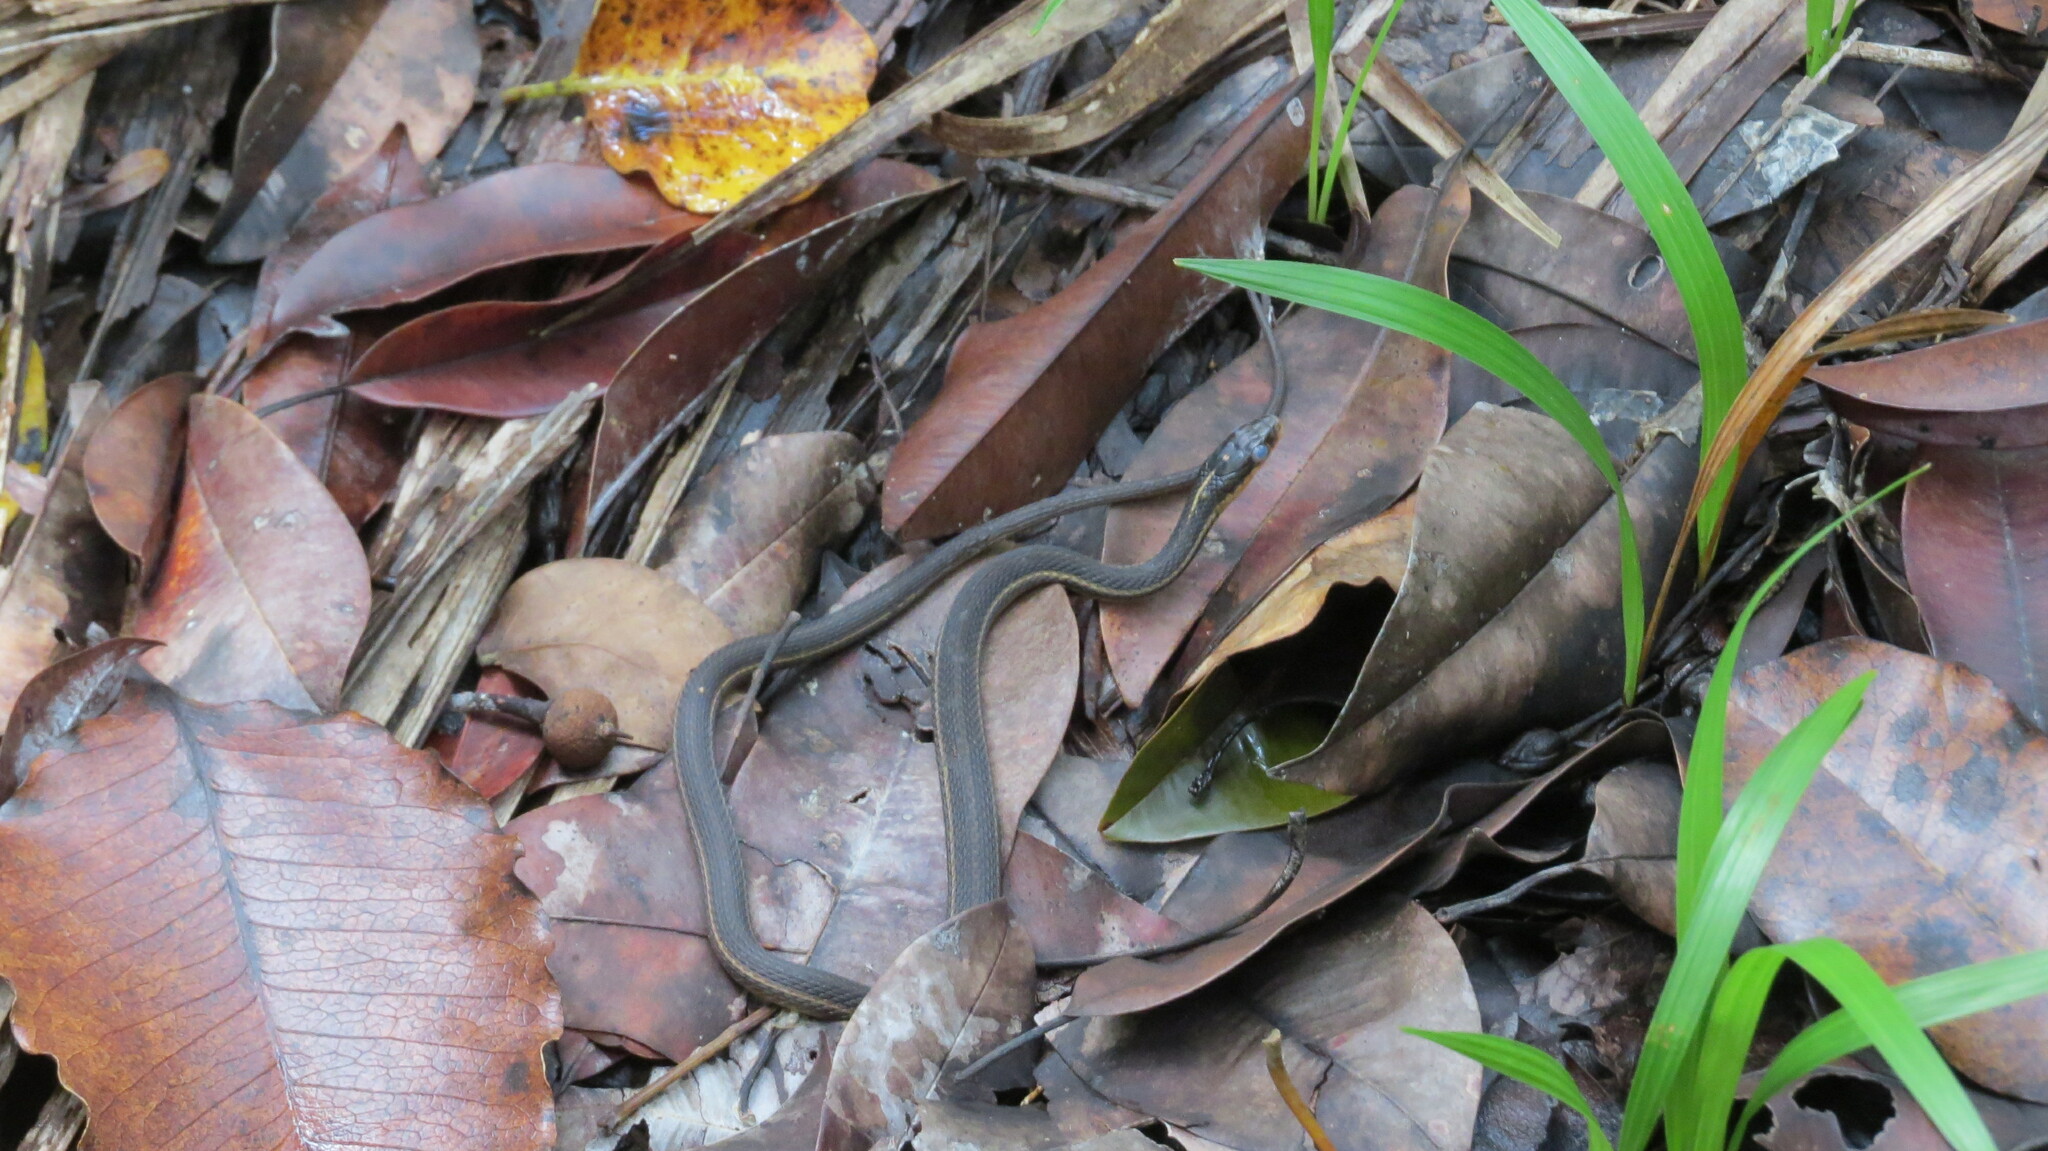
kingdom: Animalia
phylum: Chordata
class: Squamata
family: Colubridae
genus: Thamnophis
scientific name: Thamnophis proximus
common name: Western ribbon snake
